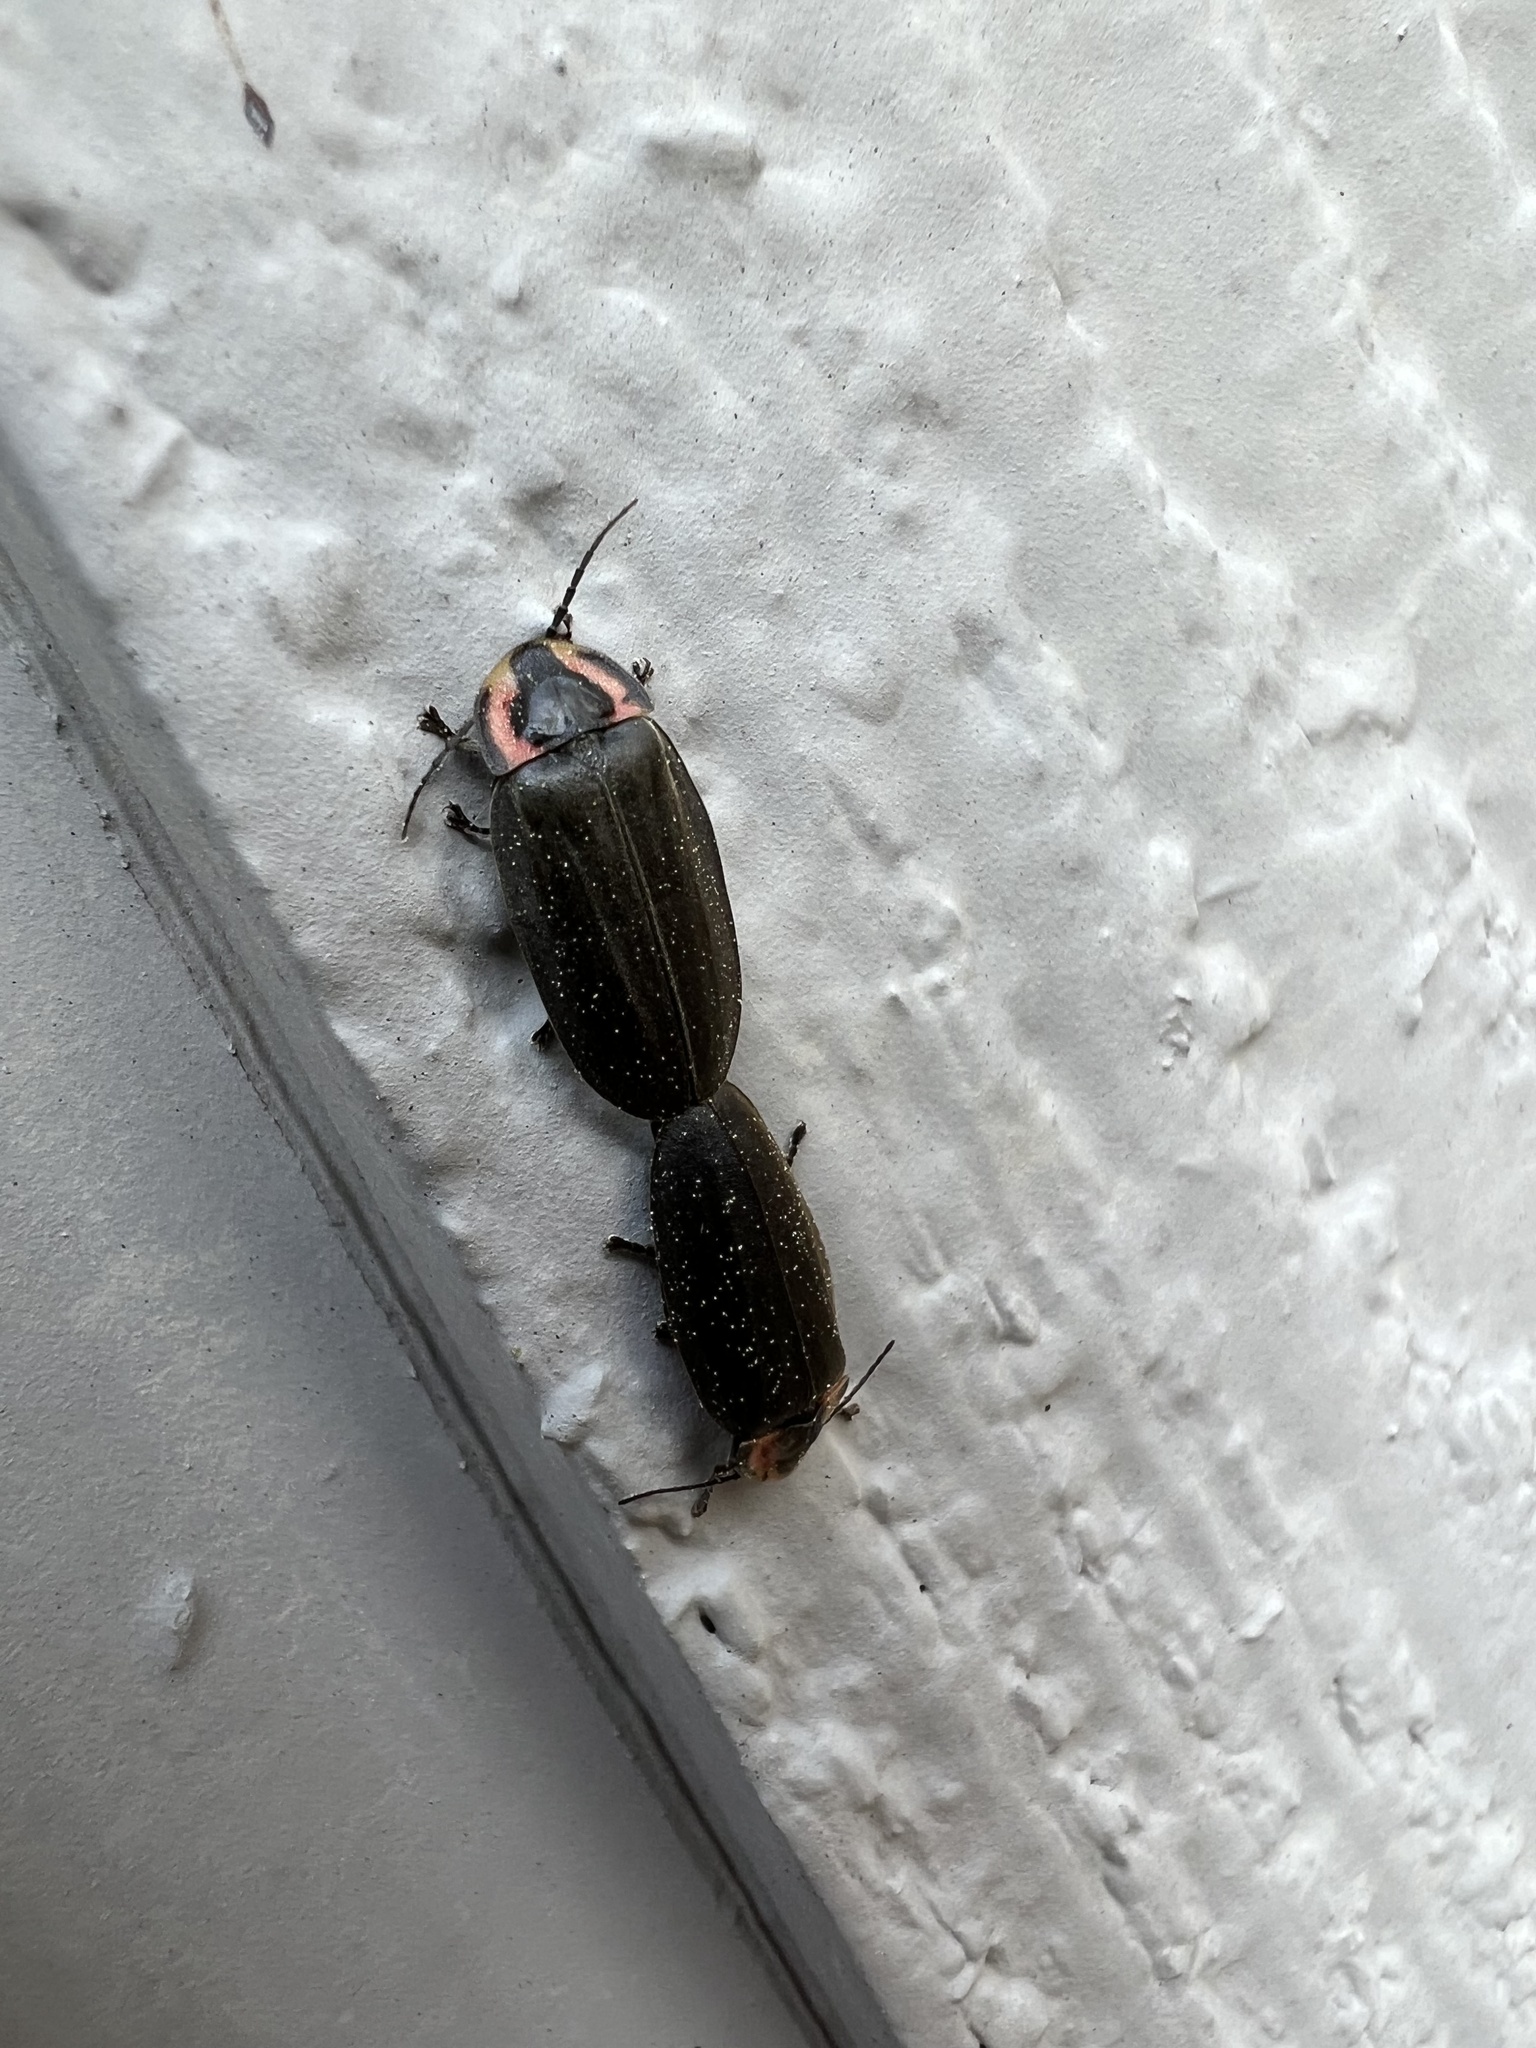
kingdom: Animalia
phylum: Arthropoda
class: Insecta
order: Coleoptera
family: Lampyridae
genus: Photinus
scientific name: Photinus corrusca
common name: Winter firefly
